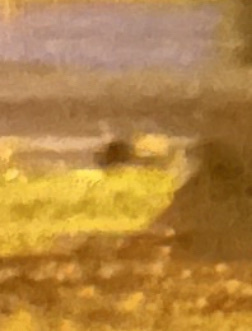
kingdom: Animalia
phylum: Chordata
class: Mammalia
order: Carnivora
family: Mephitidae
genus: Mephitis
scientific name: Mephitis mephitis
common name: Striped skunk
